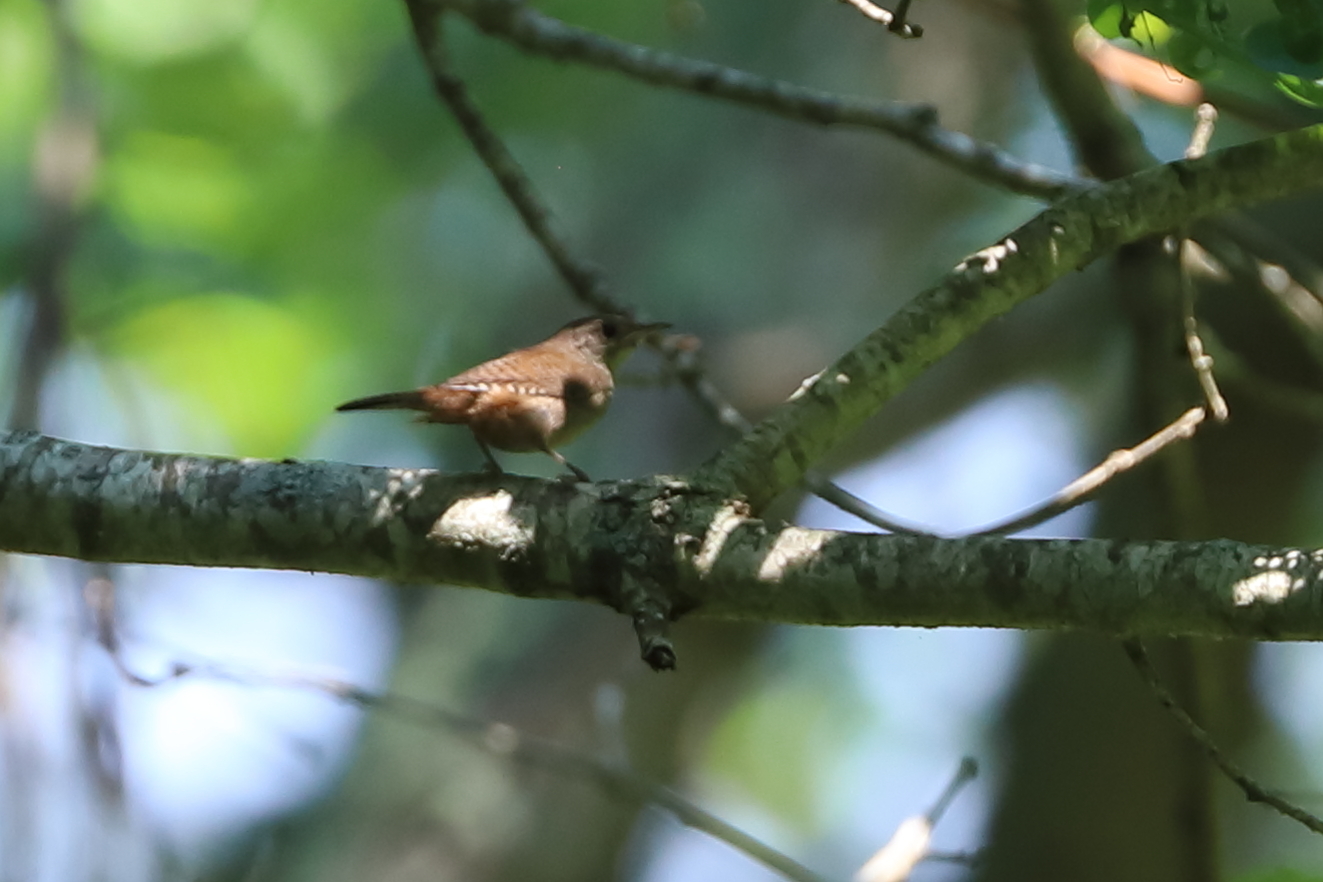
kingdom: Animalia
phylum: Chordata
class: Aves
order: Passeriformes
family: Troglodytidae
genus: Troglodytes
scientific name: Troglodytes aedon
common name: House wren
